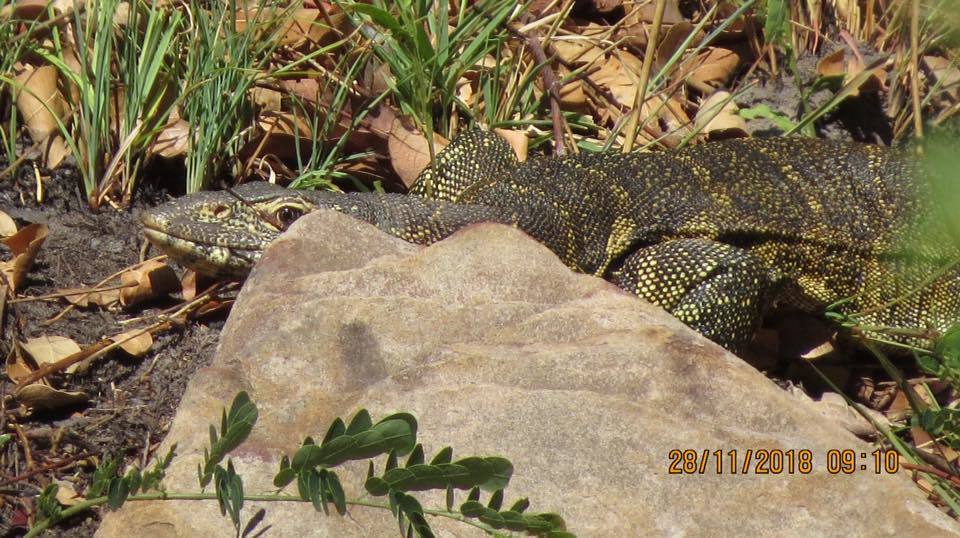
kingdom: Animalia
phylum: Chordata
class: Squamata
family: Varanidae
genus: Varanus
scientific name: Varanus niloticus
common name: Nile monitor
